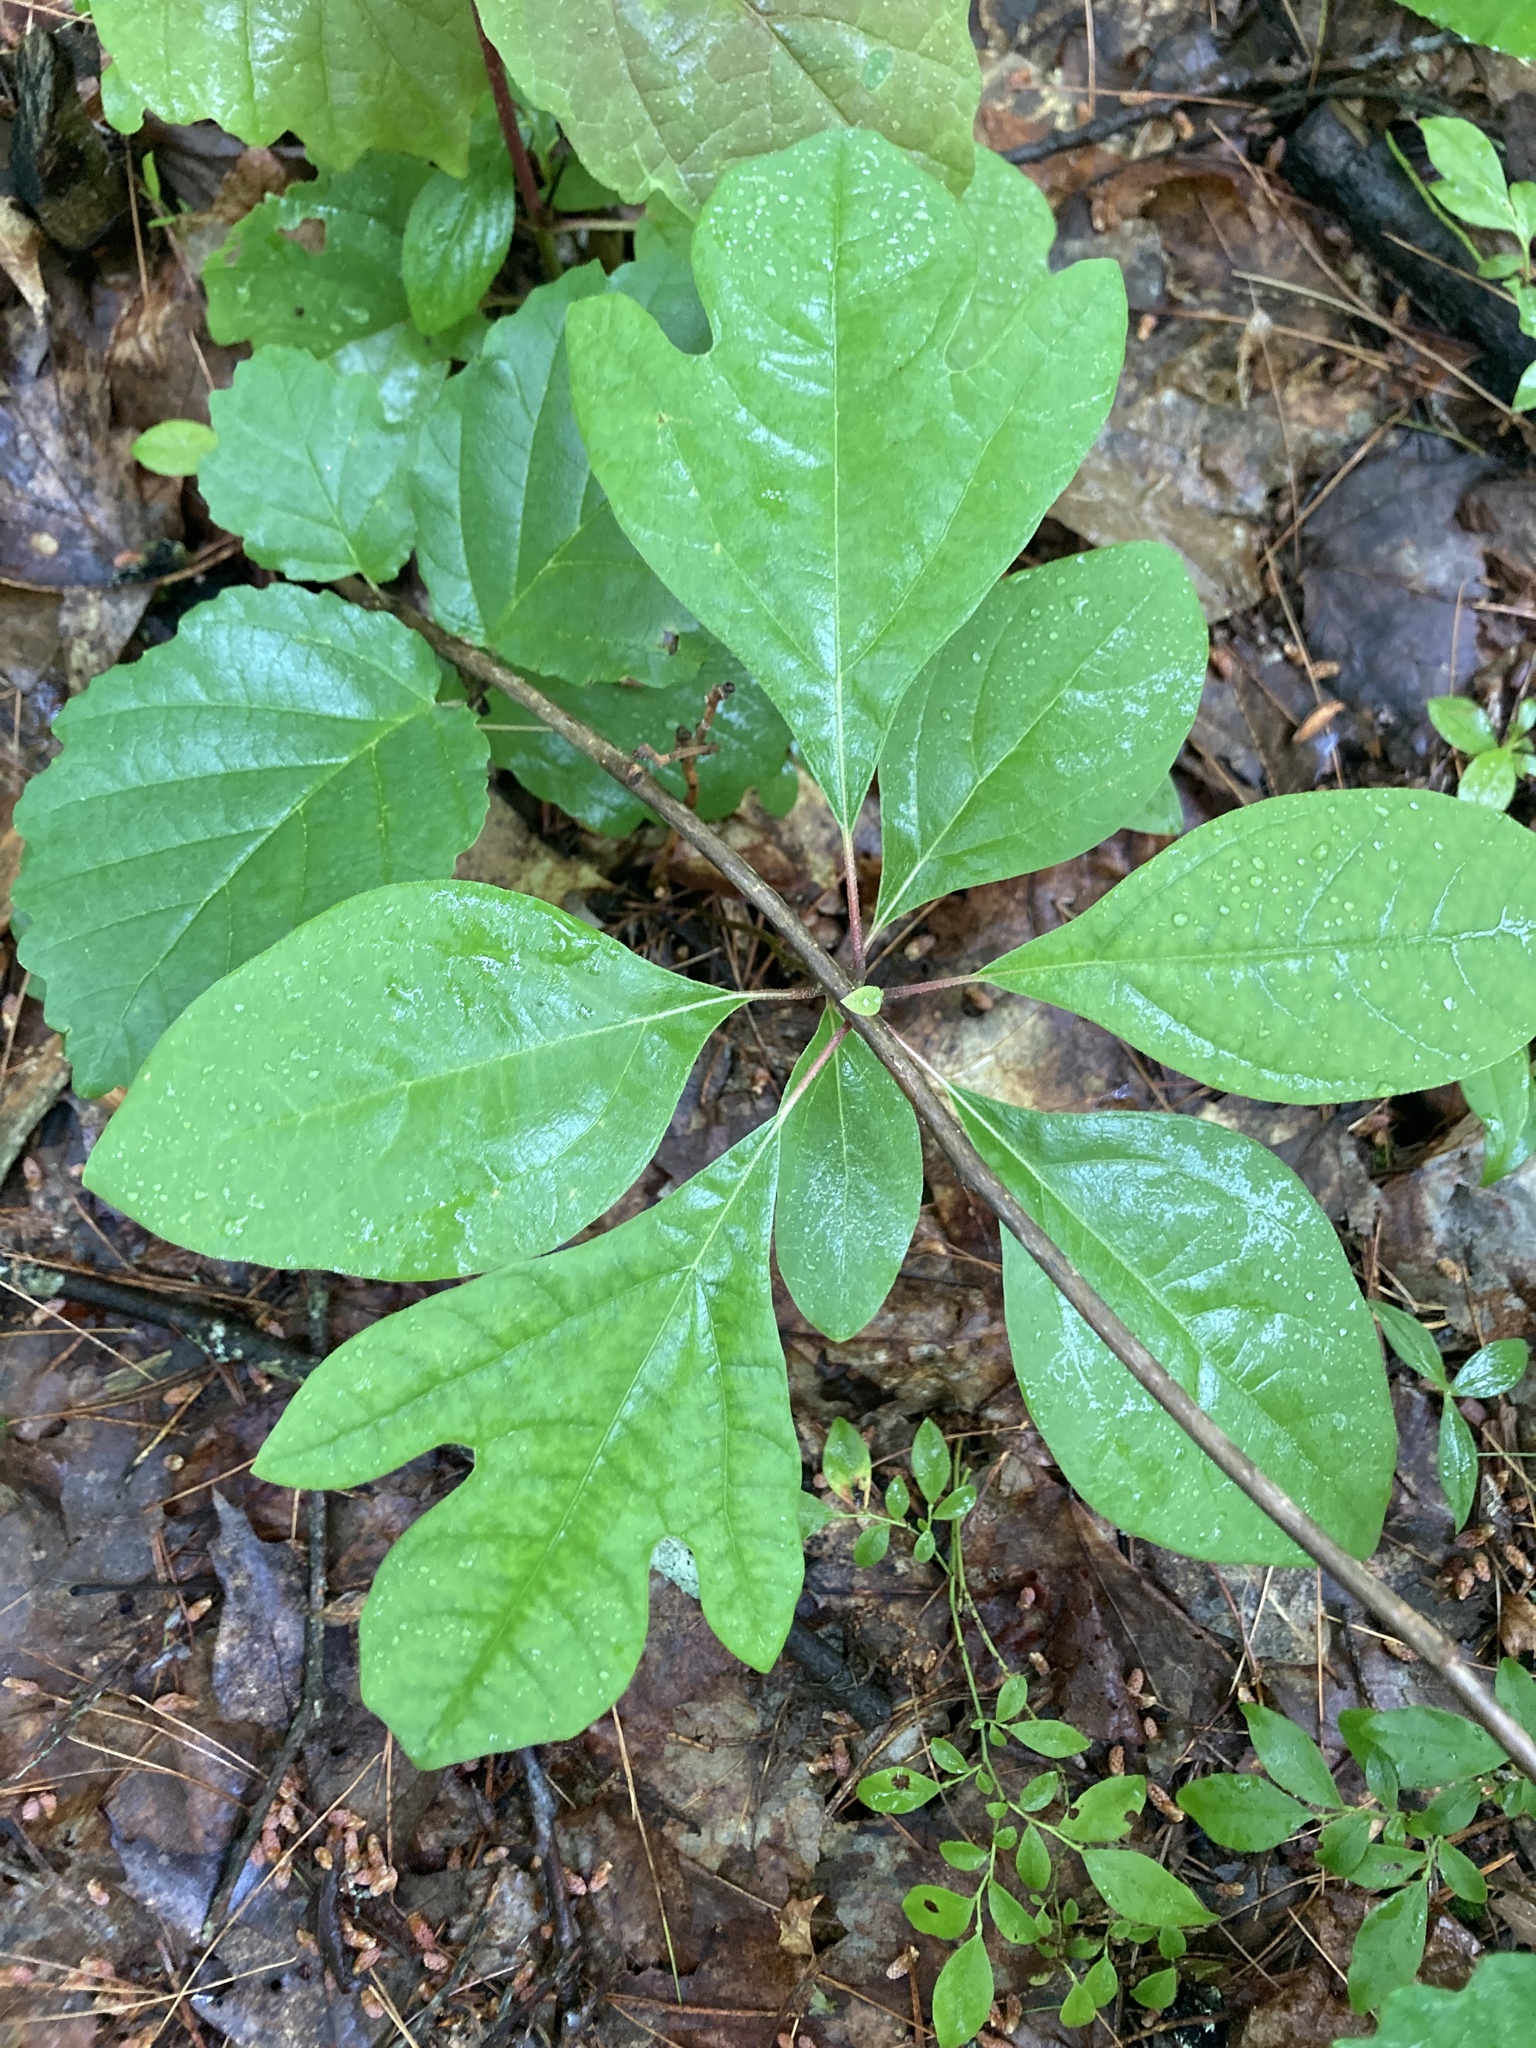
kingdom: Plantae
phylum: Tracheophyta
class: Magnoliopsida
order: Laurales
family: Lauraceae
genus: Sassafras
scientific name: Sassafras albidum
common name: Sassafras
